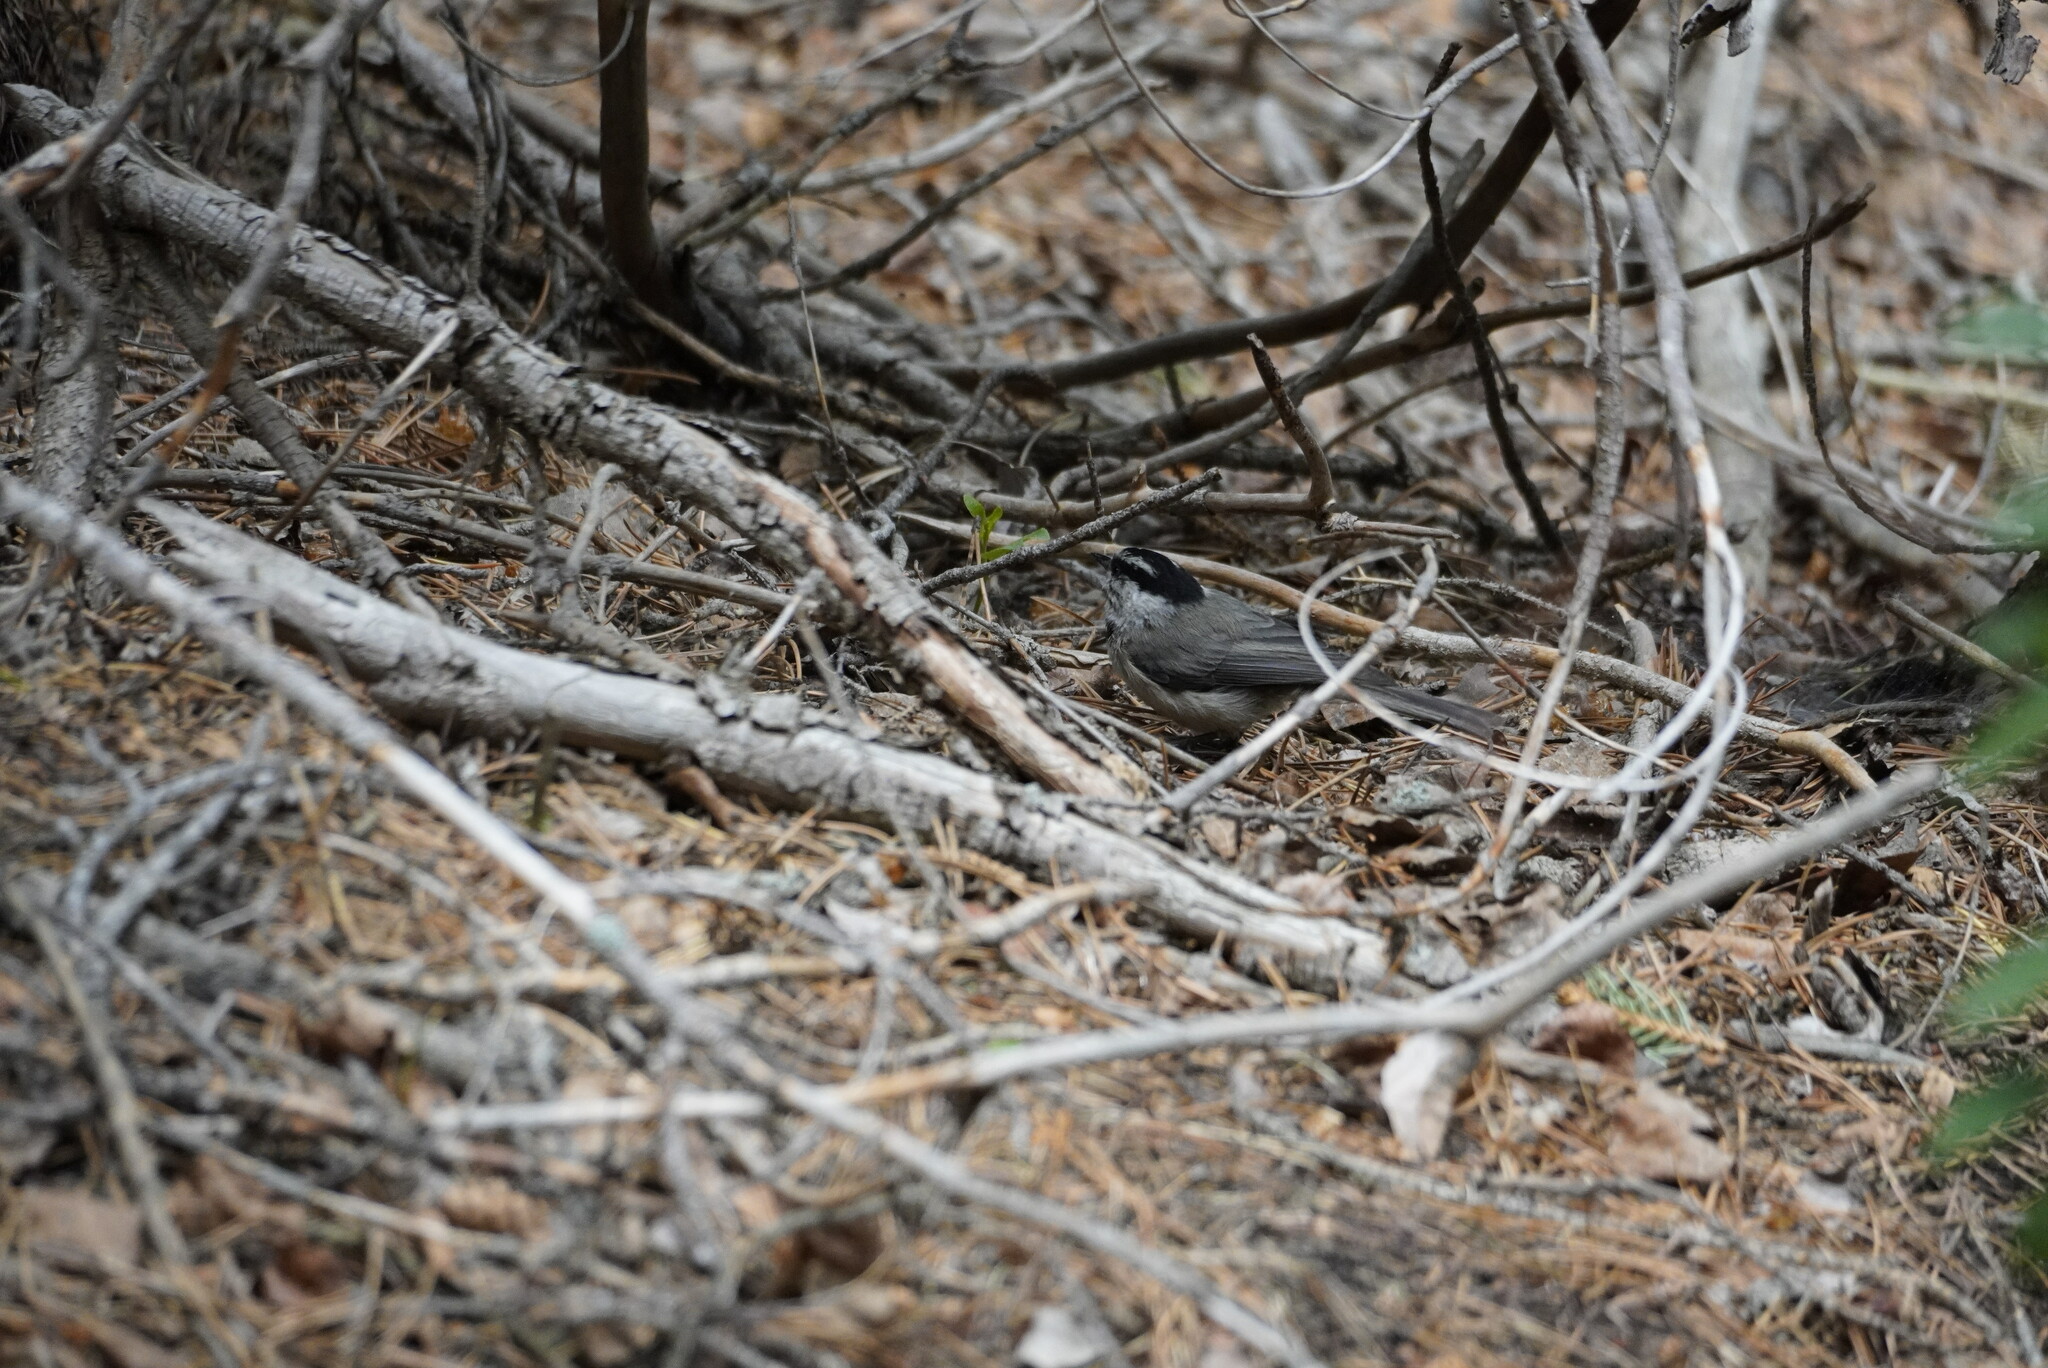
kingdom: Animalia
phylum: Chordata
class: Aves
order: Passeriformes
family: Paridae
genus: Poecile
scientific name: Poecile gambeli
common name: Mountain chickadee
